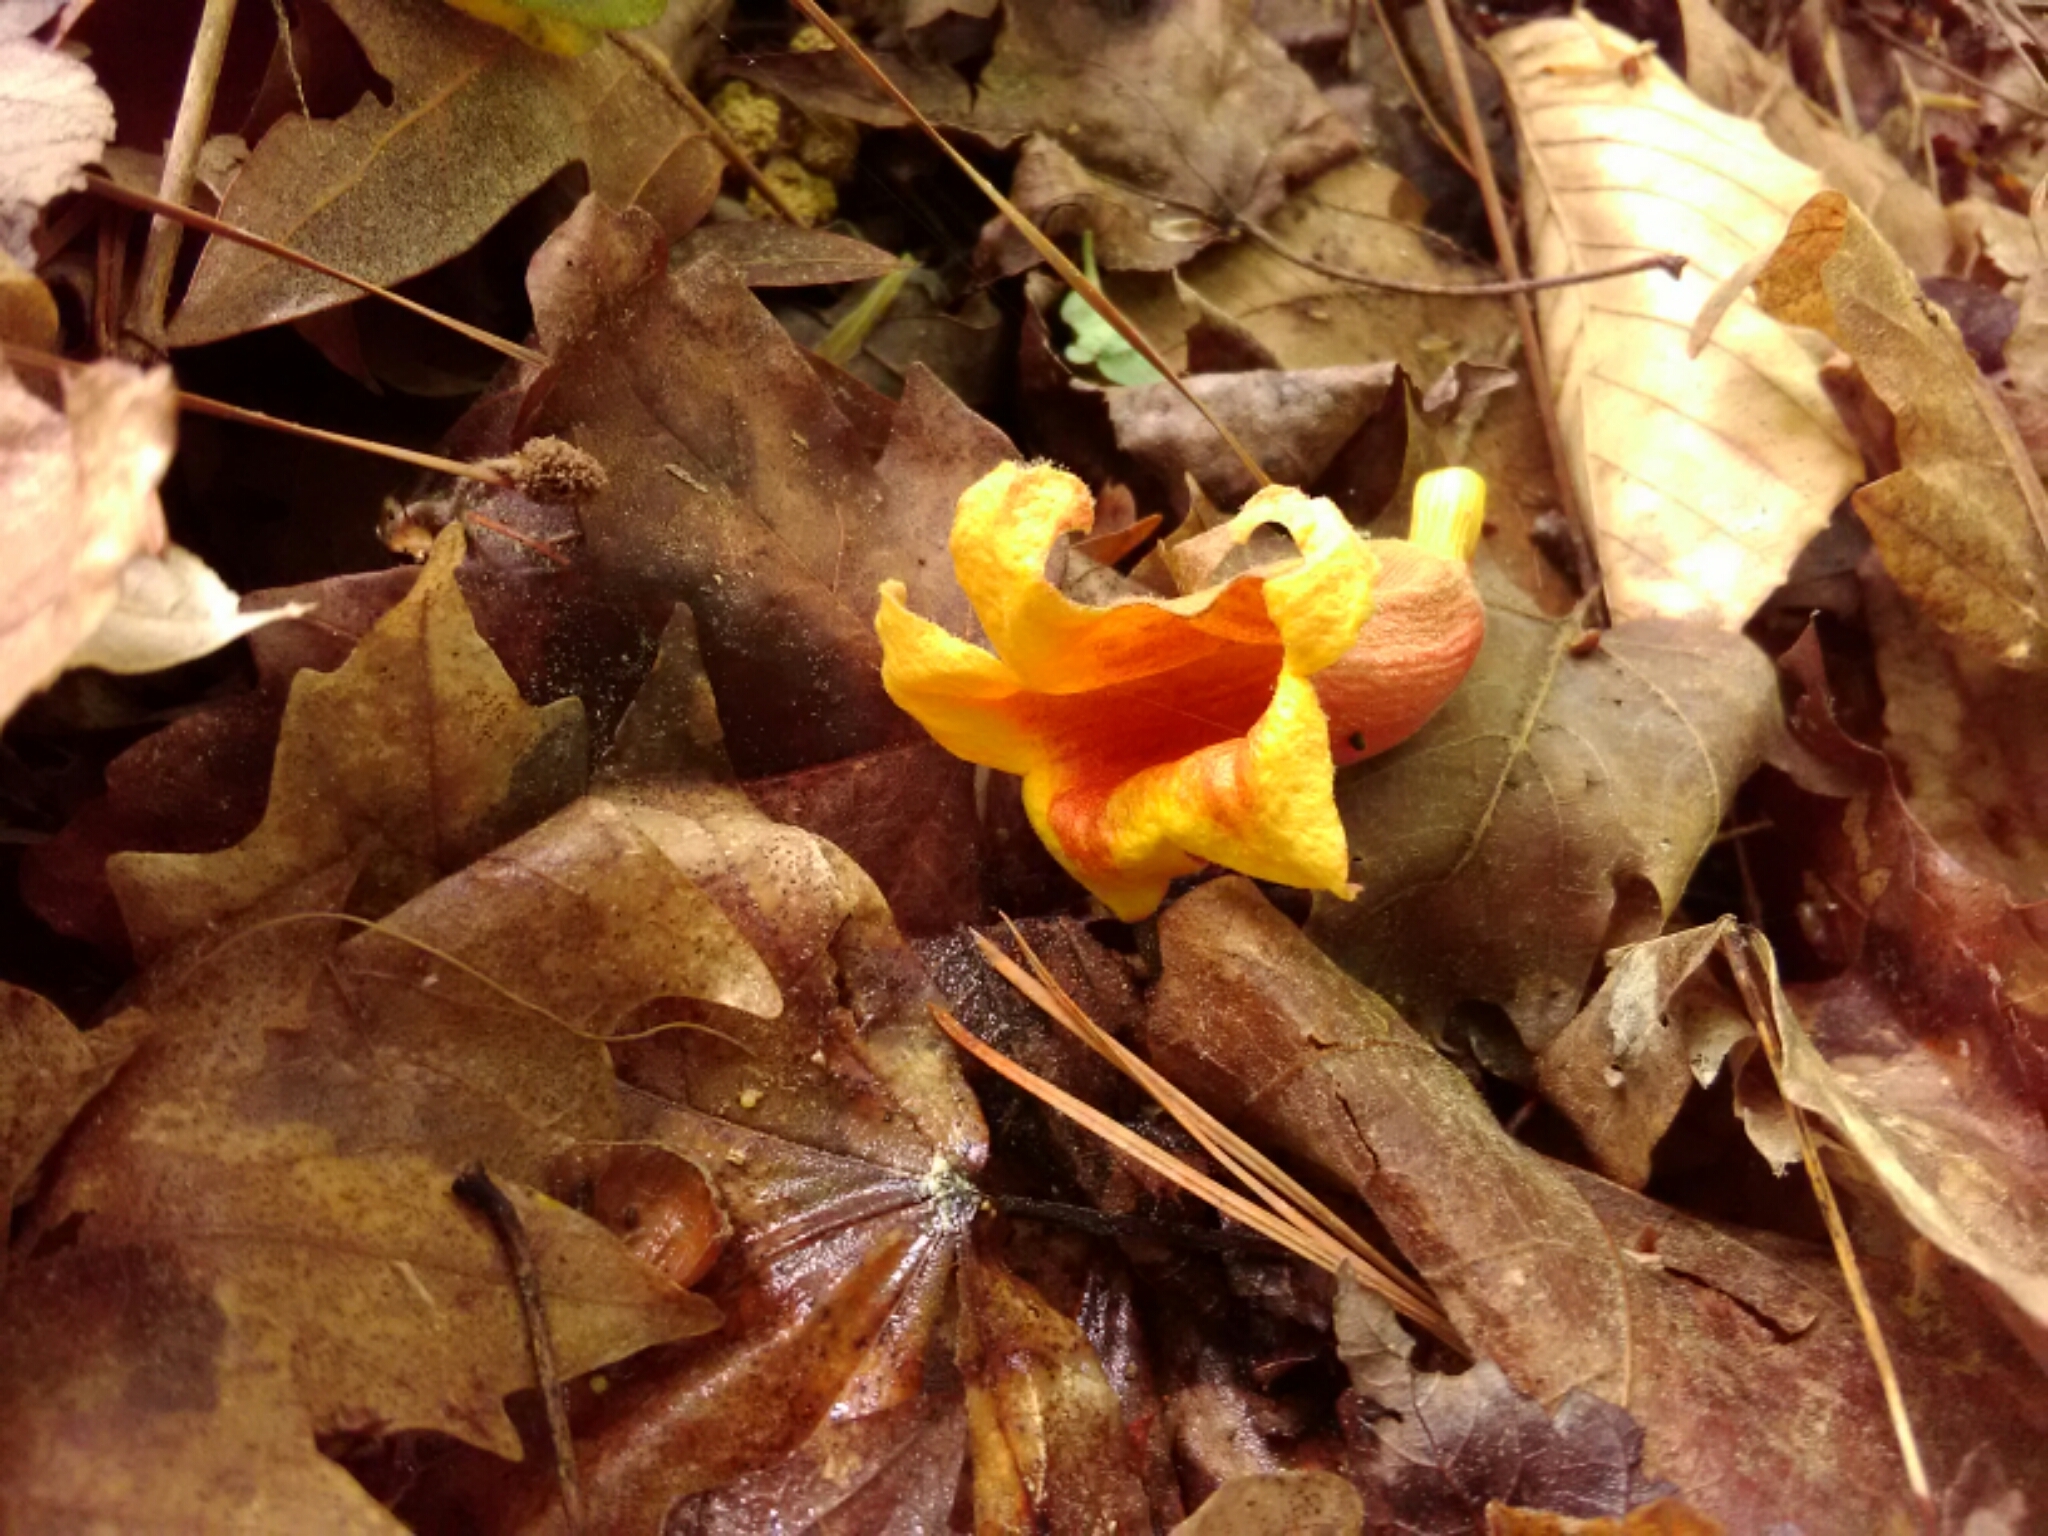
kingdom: Plantae
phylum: Tracheophyta
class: Magnoliopsida
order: Lamiales
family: Bignoniaceae
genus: Bignonia
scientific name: Bignonia capreolata
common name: Crossvine
